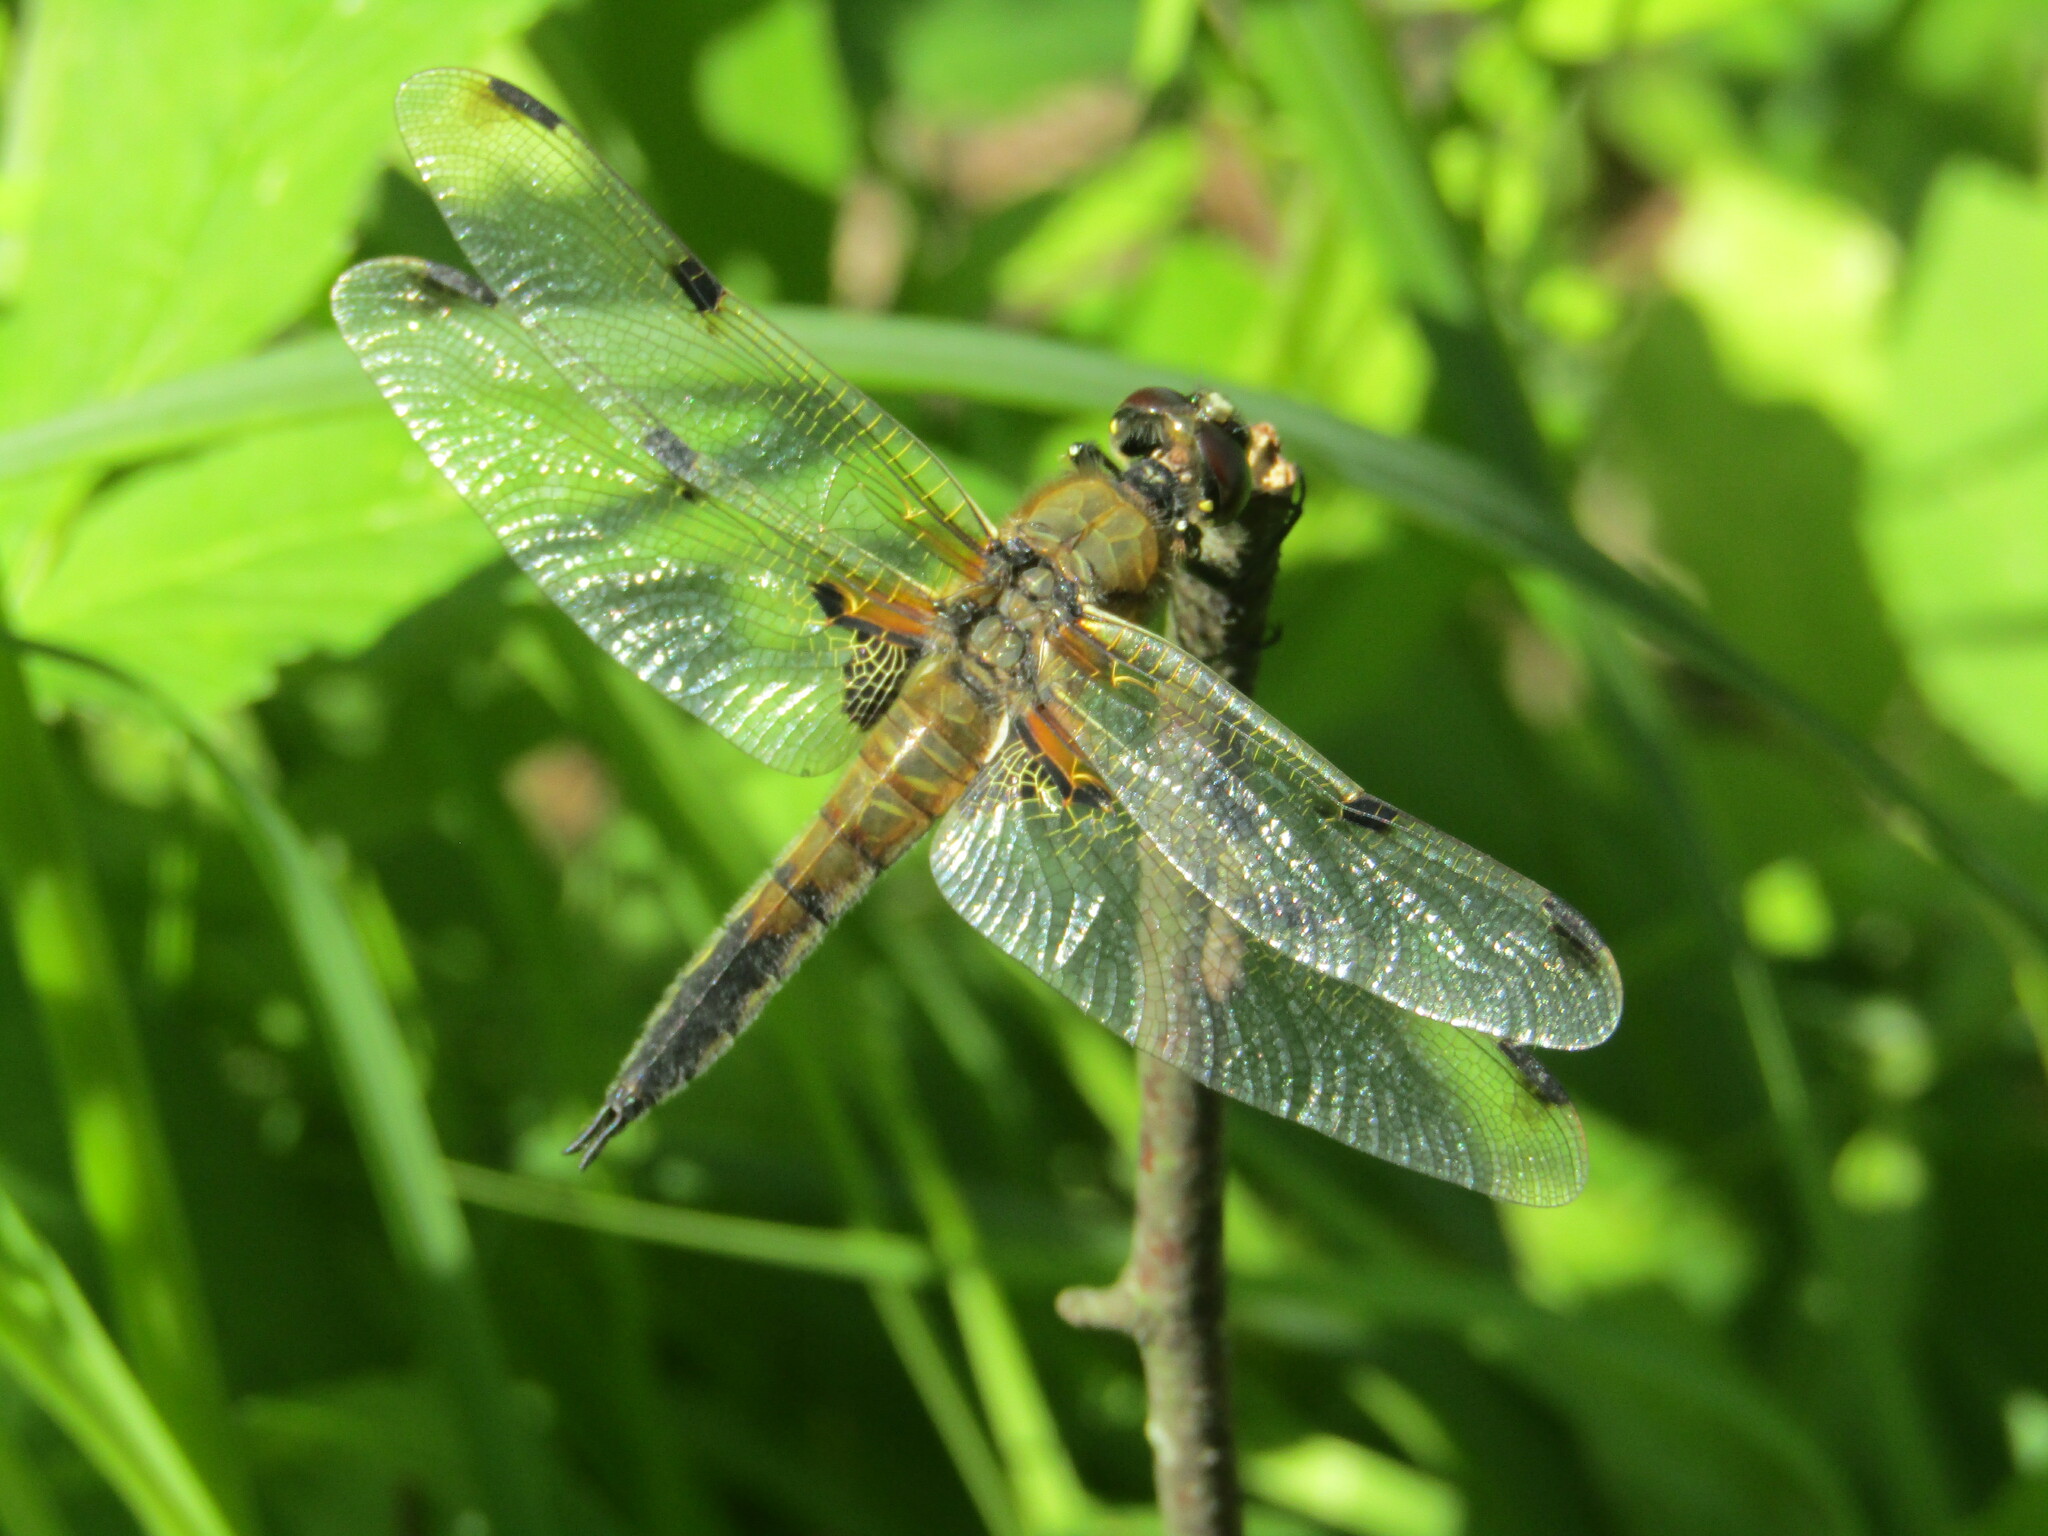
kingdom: Animalia
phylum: Arthropoda
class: Insecta
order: Odonata
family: Libellulidae
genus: Libellula
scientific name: Libellula quadrimaculata
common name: Four-spotted chaser
